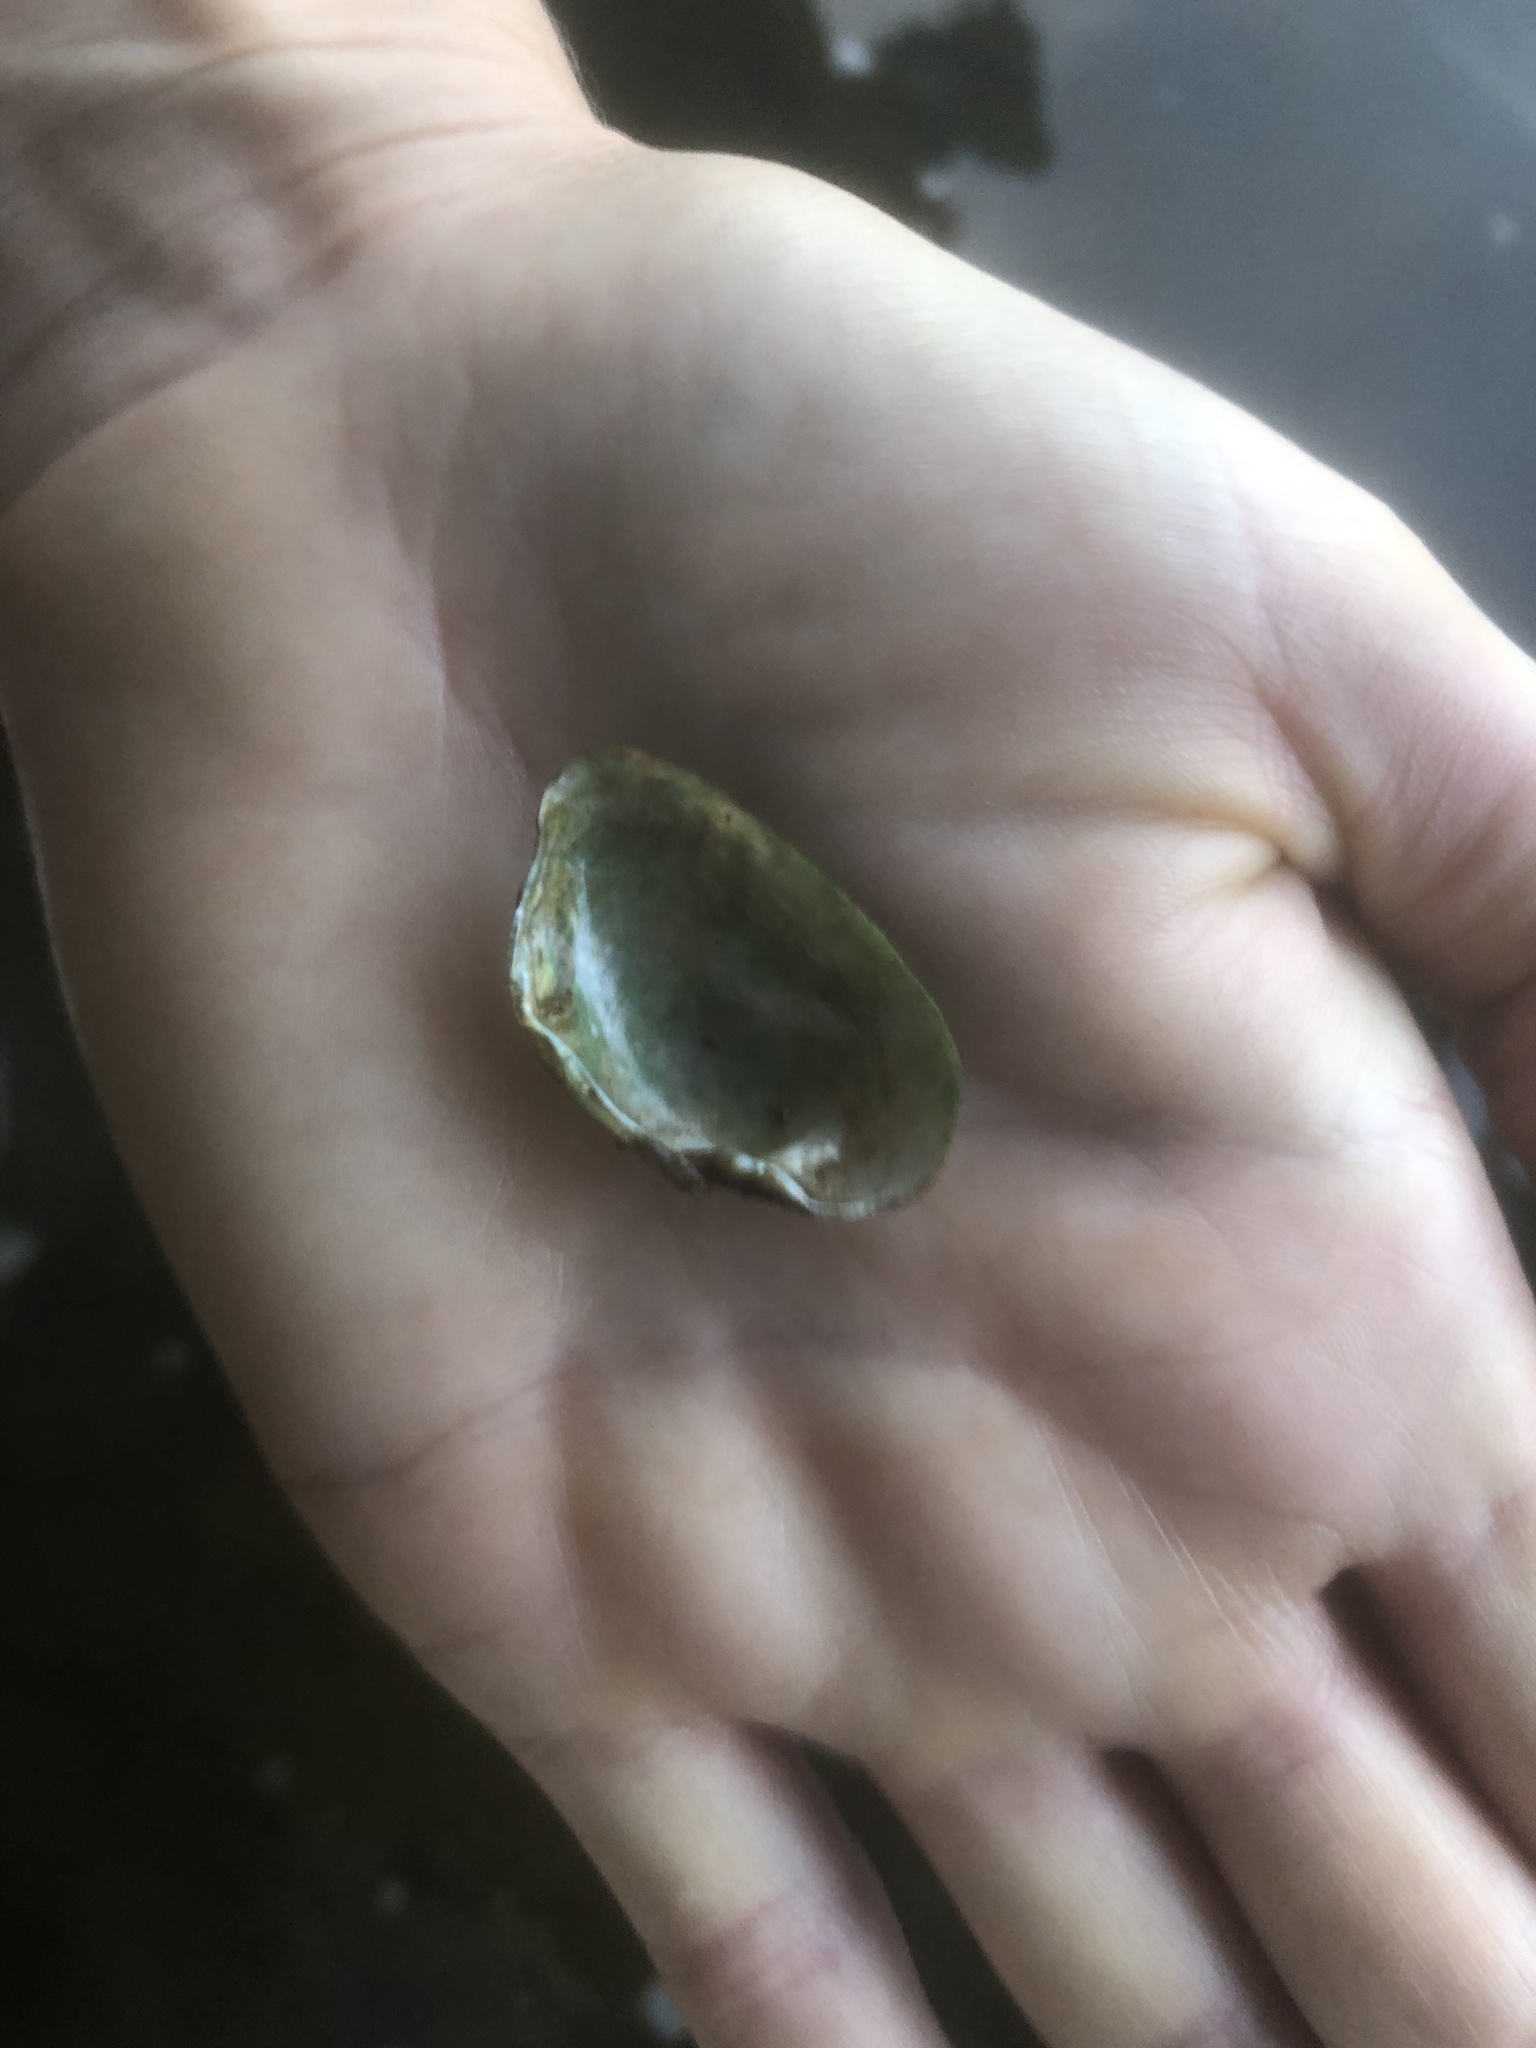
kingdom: Animalia
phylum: Mollusca
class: Bivalvia
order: Unionida
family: Unionidae
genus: Alasmidonta
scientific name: Alasmidonta viridis
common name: Slippershell mussel
